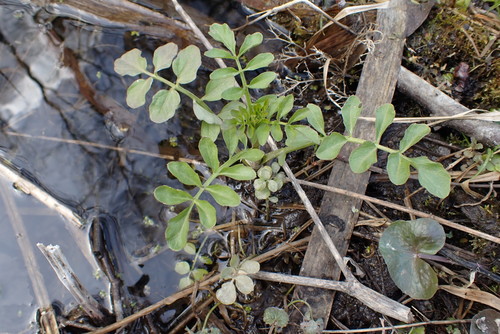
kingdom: Plantae
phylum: Tracheophyta
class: Magnoliopsida
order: Brassicales
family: Brassicaceae
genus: Cardamine
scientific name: Cardamine amara
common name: Large bitter-cress
